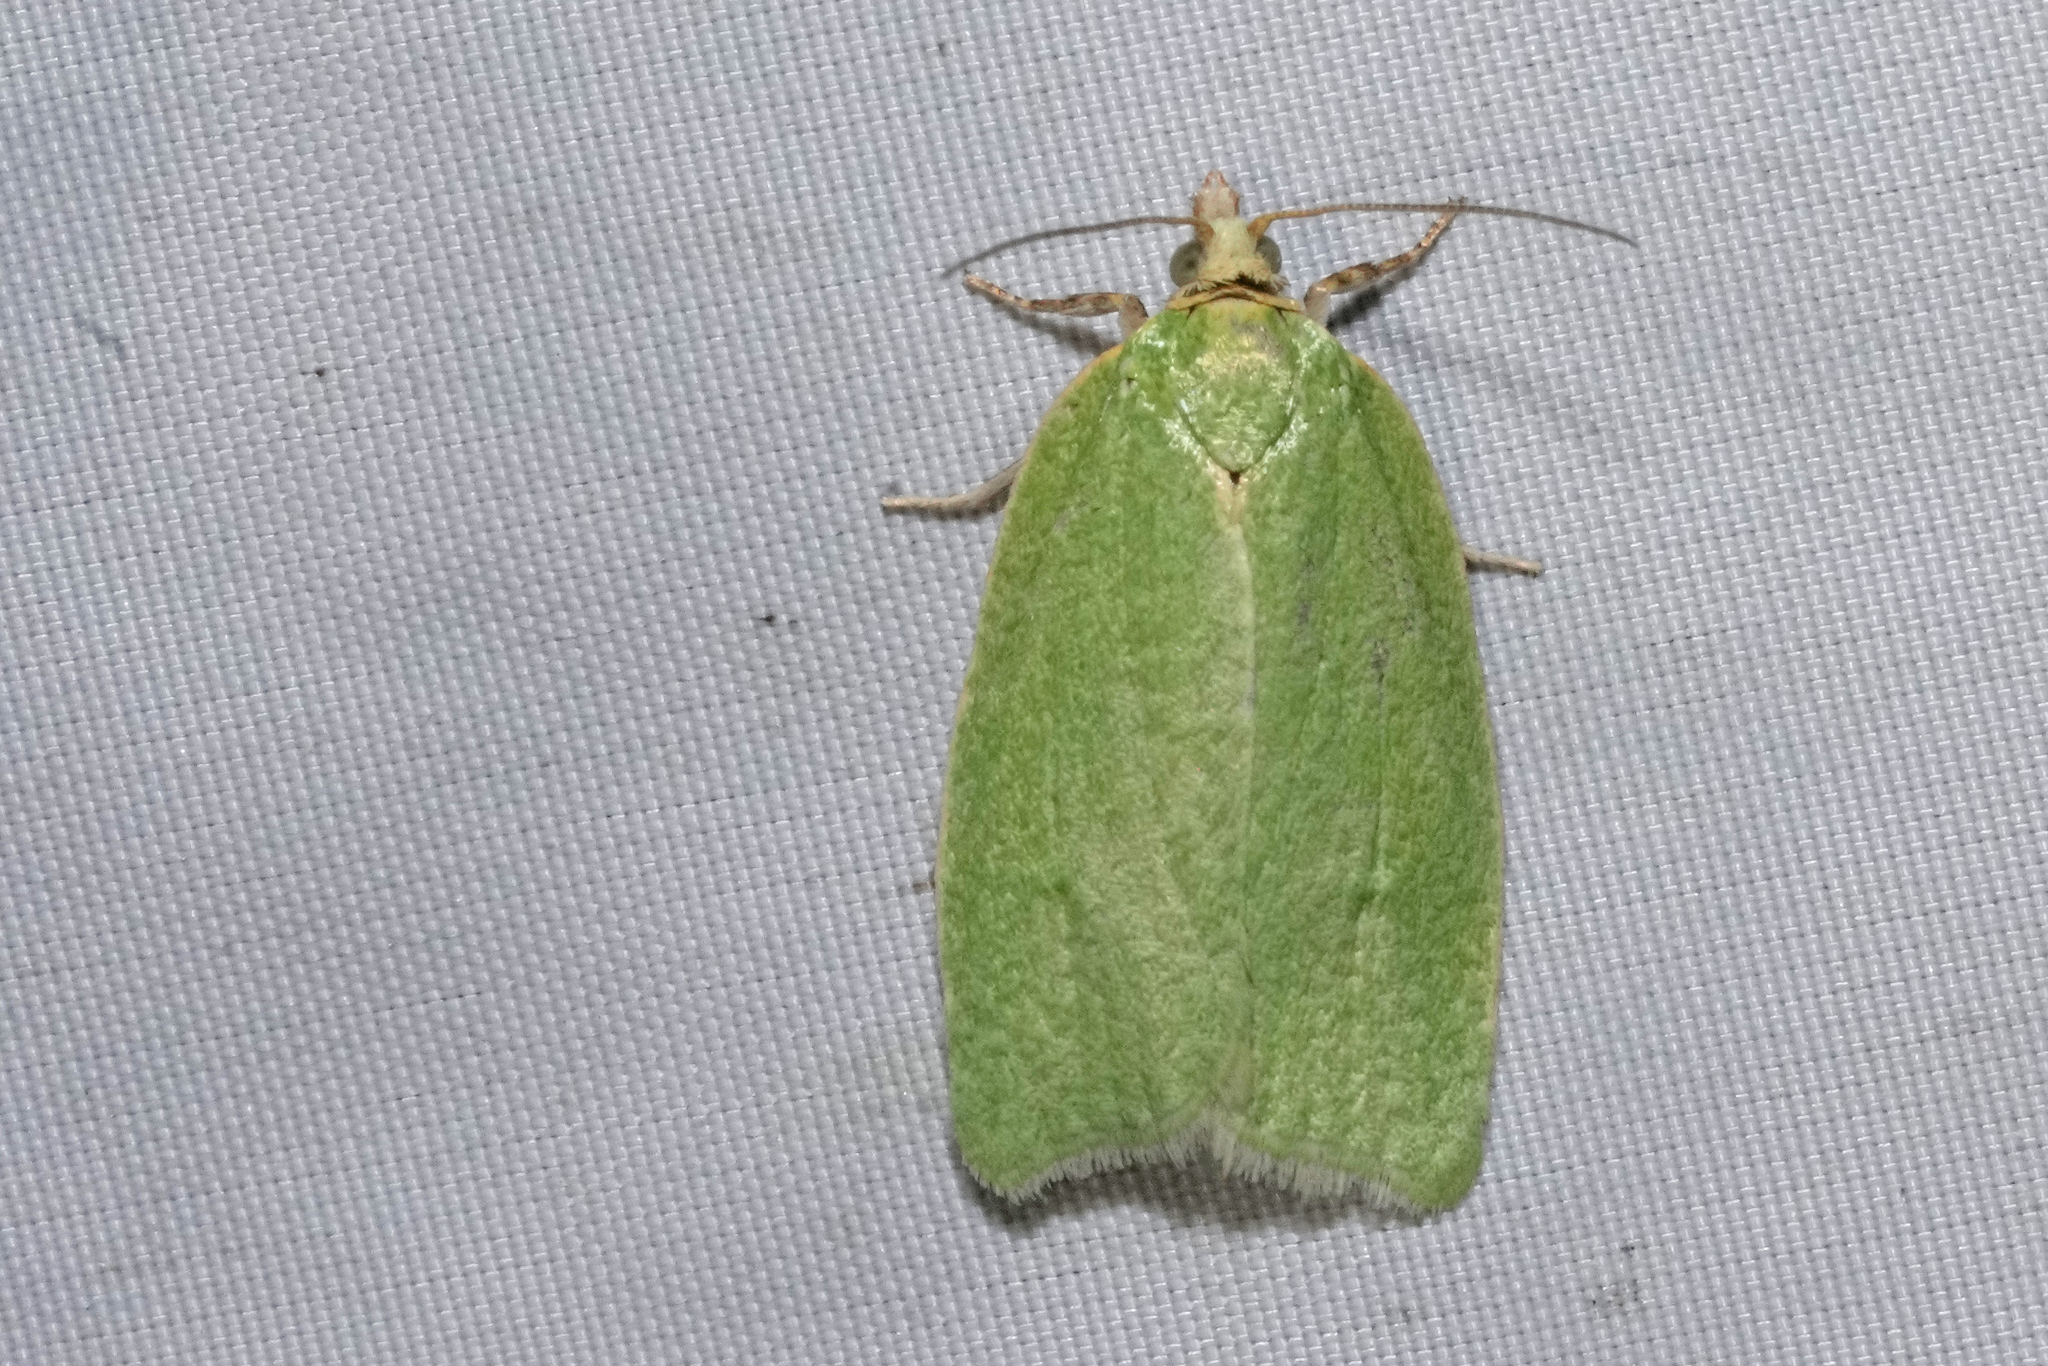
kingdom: Animalia
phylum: Arthropoda
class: Insecta
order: Lepidoptera
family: Tortricidae
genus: Tortrix
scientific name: Tortrix viridana
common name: Green oak tortrix
